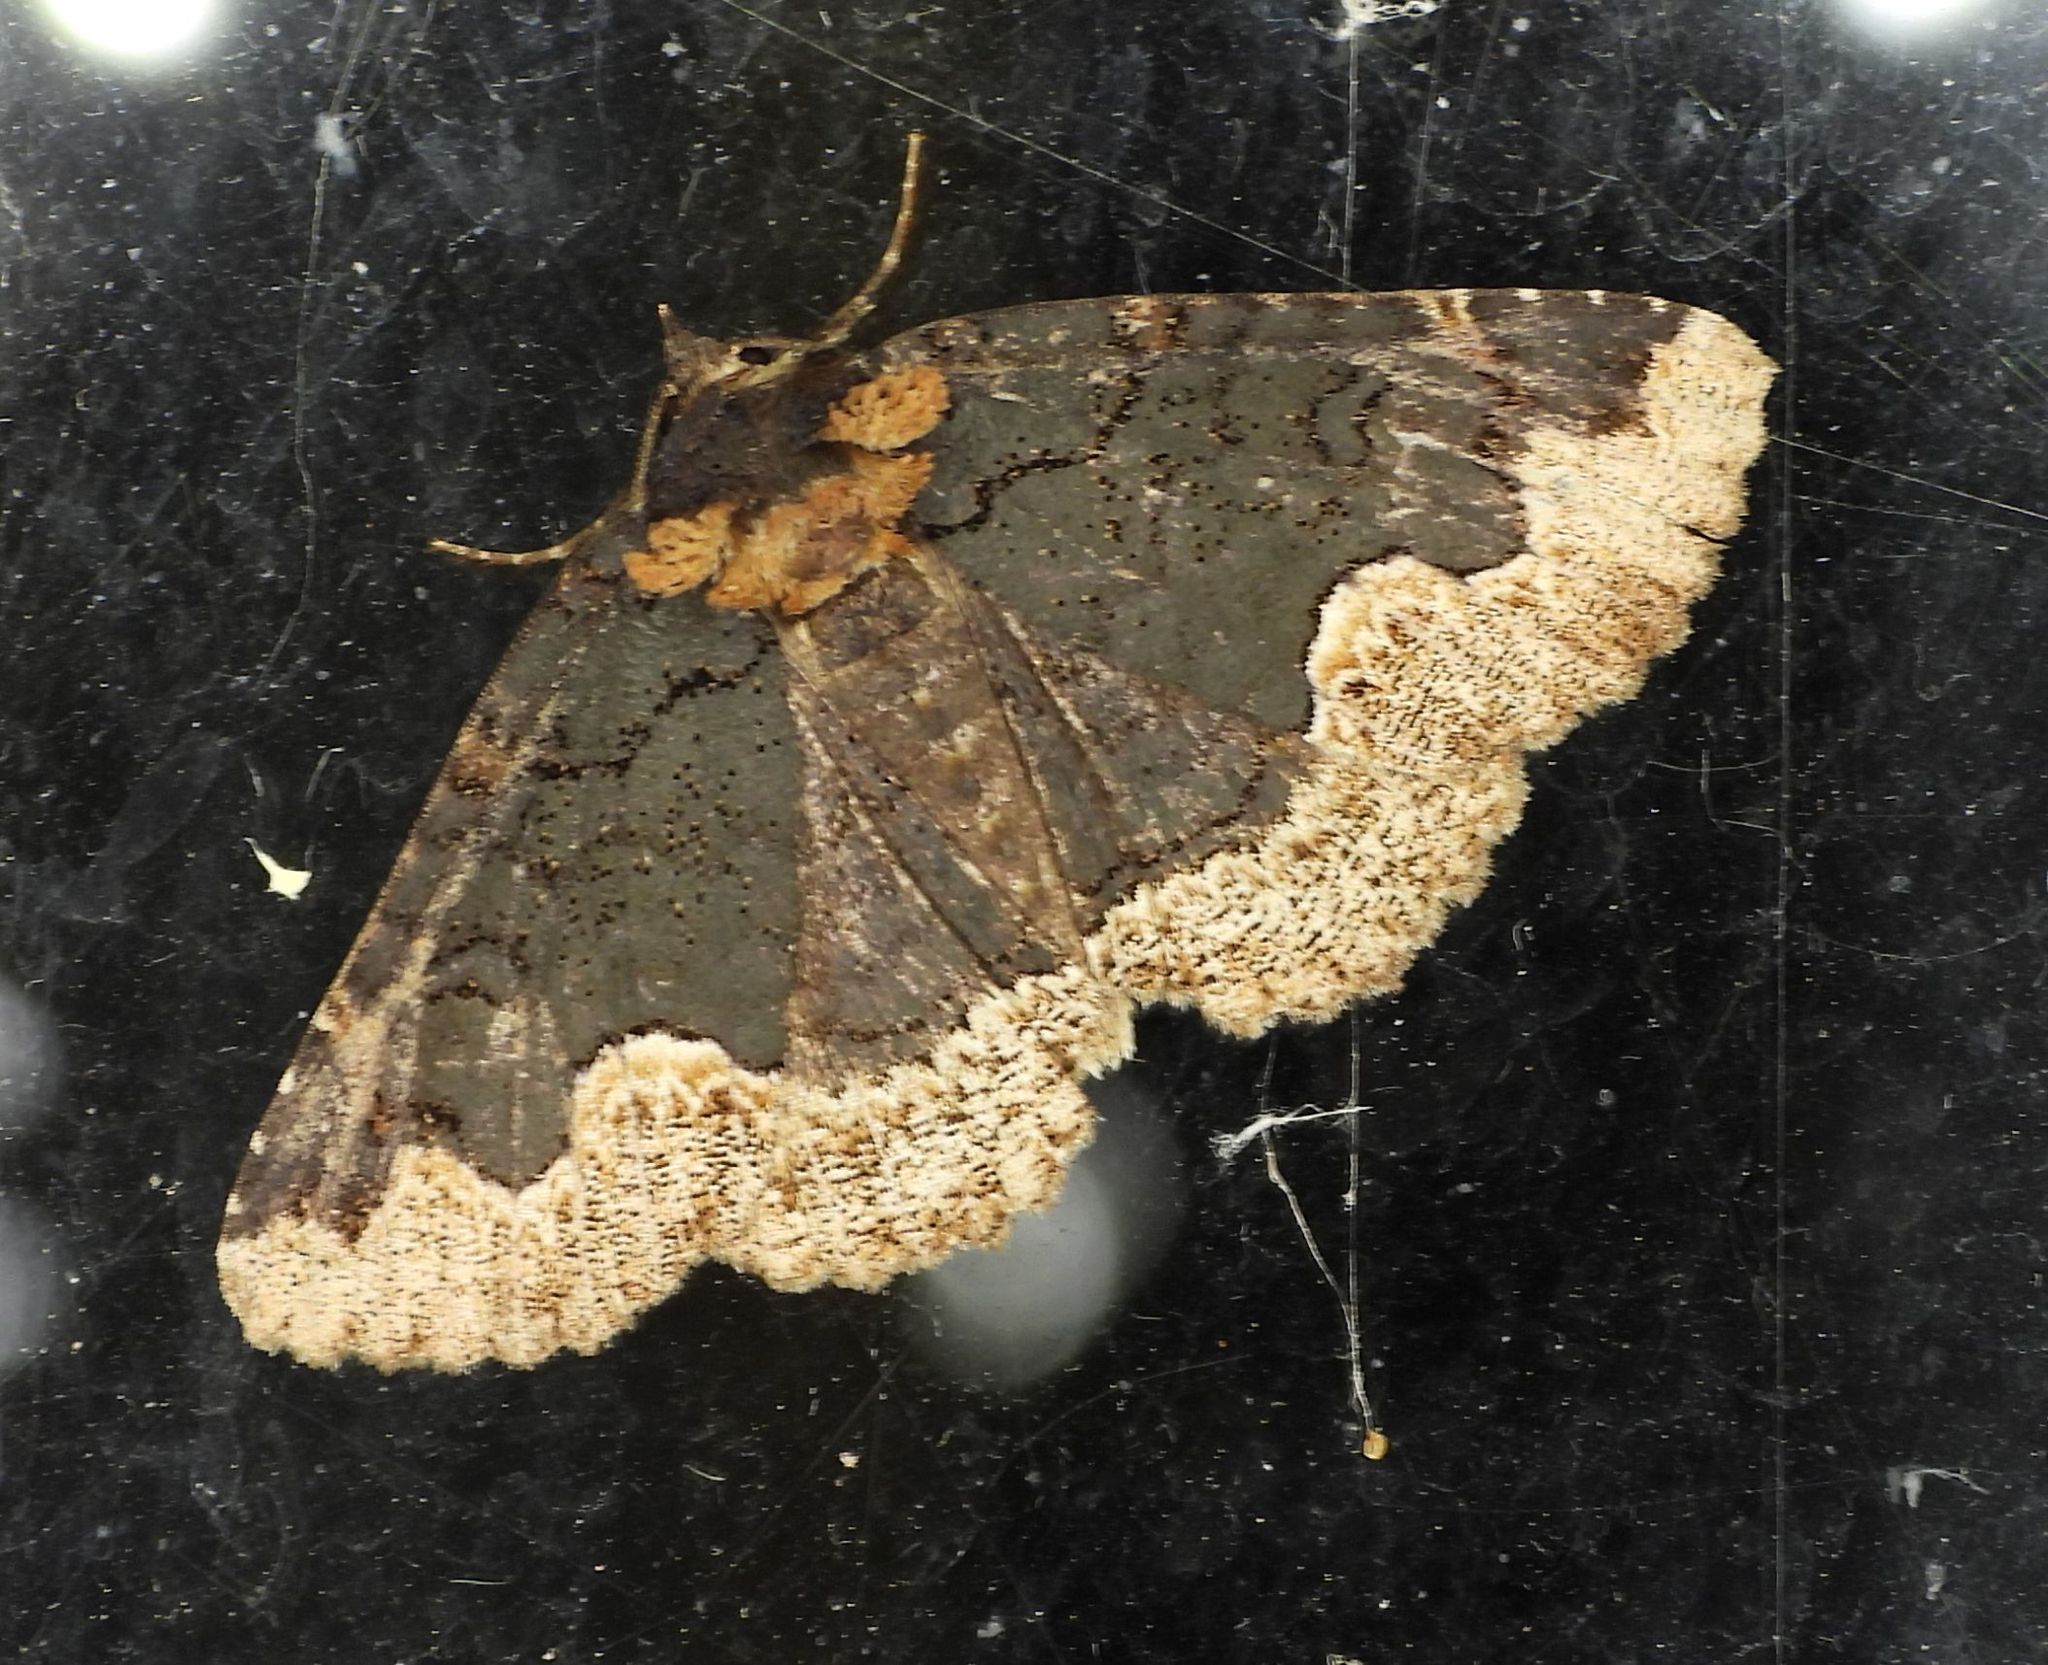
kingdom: Animalia
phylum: Arthropoda
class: Insecta
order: Lepidoptera
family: Erebidae
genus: Zale
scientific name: Zale horrida
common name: Horrid zale moth
